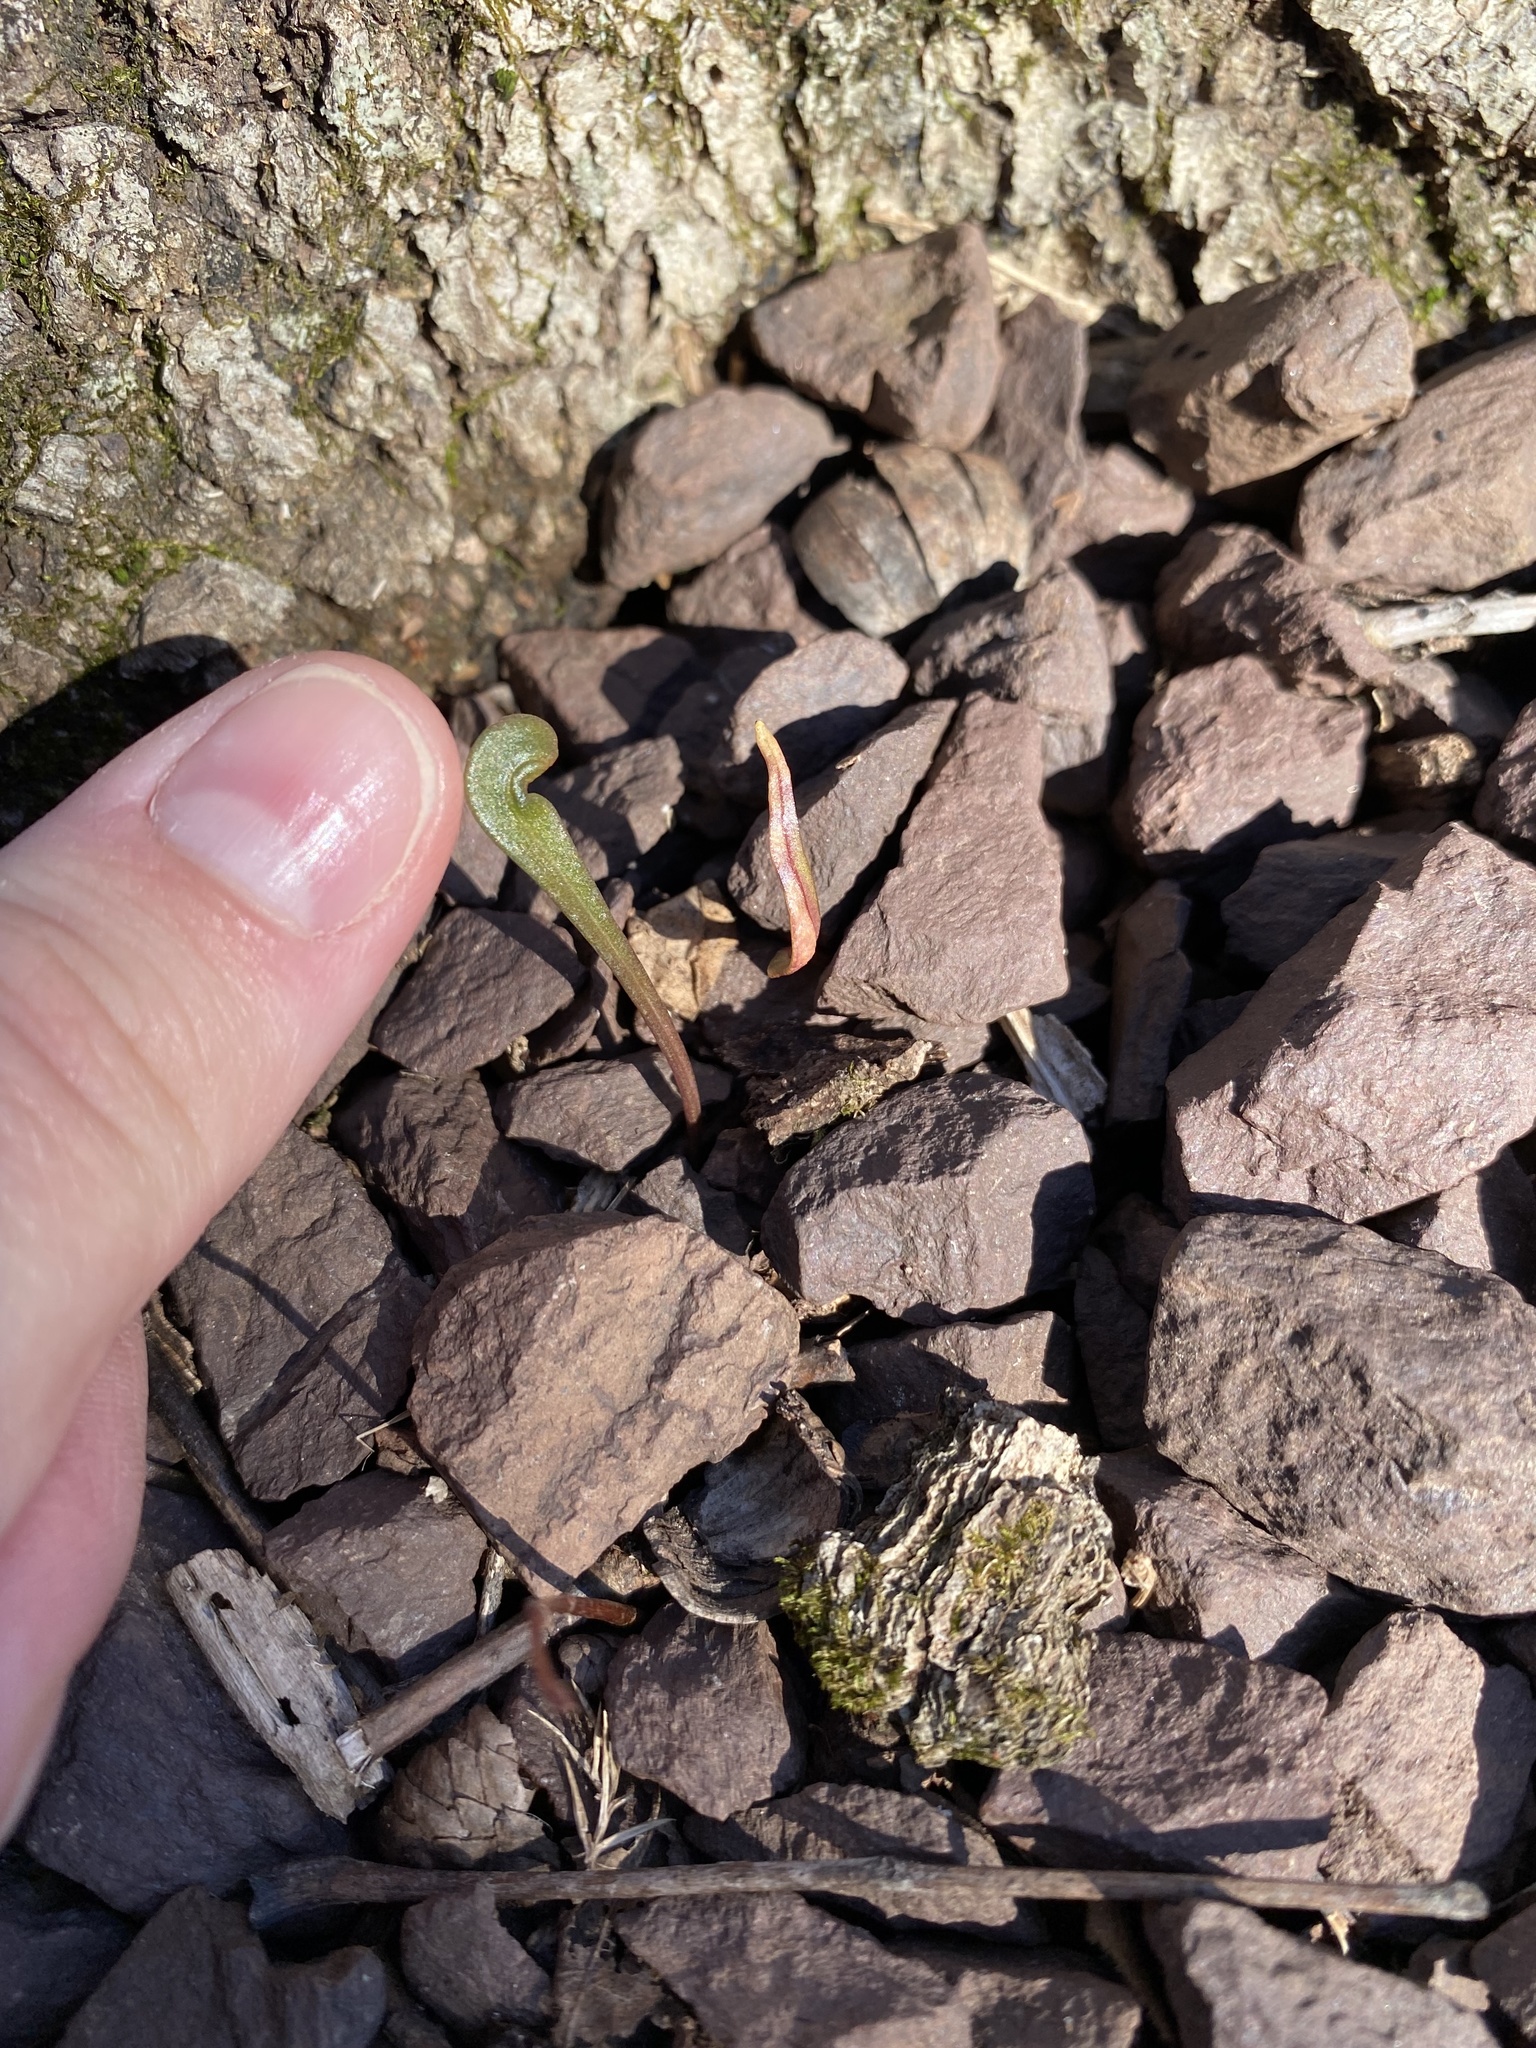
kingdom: Plantae
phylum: Tracheophyta
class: Magnoliopsida
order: Caryophyllales
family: Montiaceae
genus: Claytonia
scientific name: Claytonia virginica
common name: Virginia springbeauty
